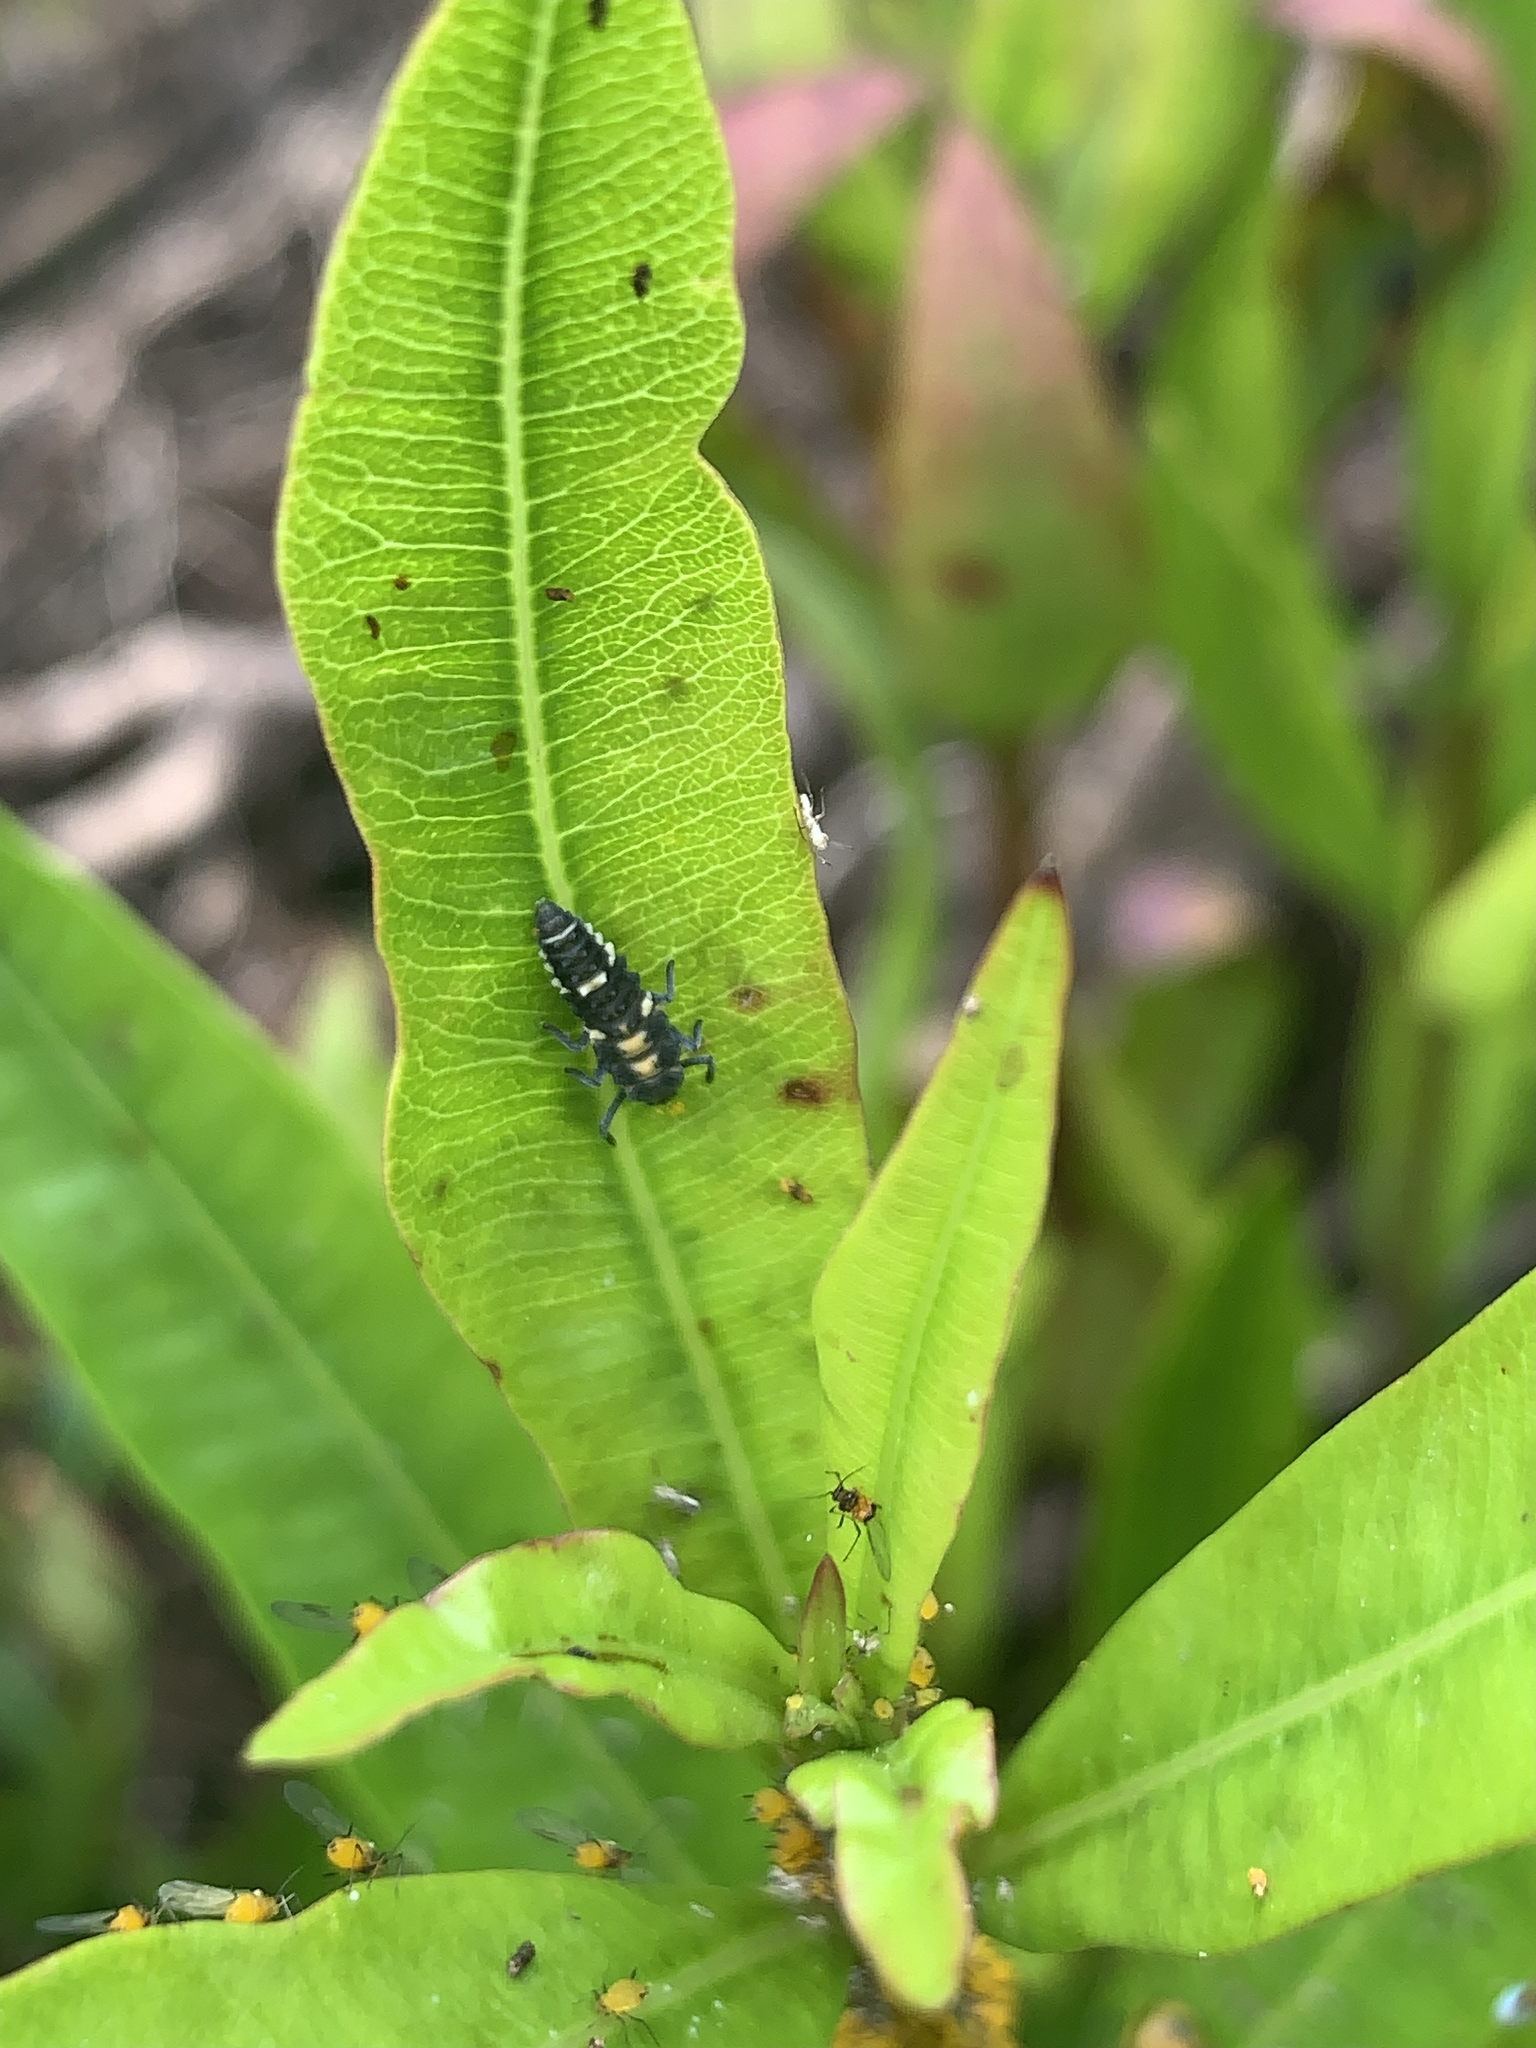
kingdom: Animalia
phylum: Arthropoda
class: Insecta
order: Coleoptera
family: Coccinellidae
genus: Coelophora
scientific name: Coelophora inaequalis
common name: Common australian lady beetle
